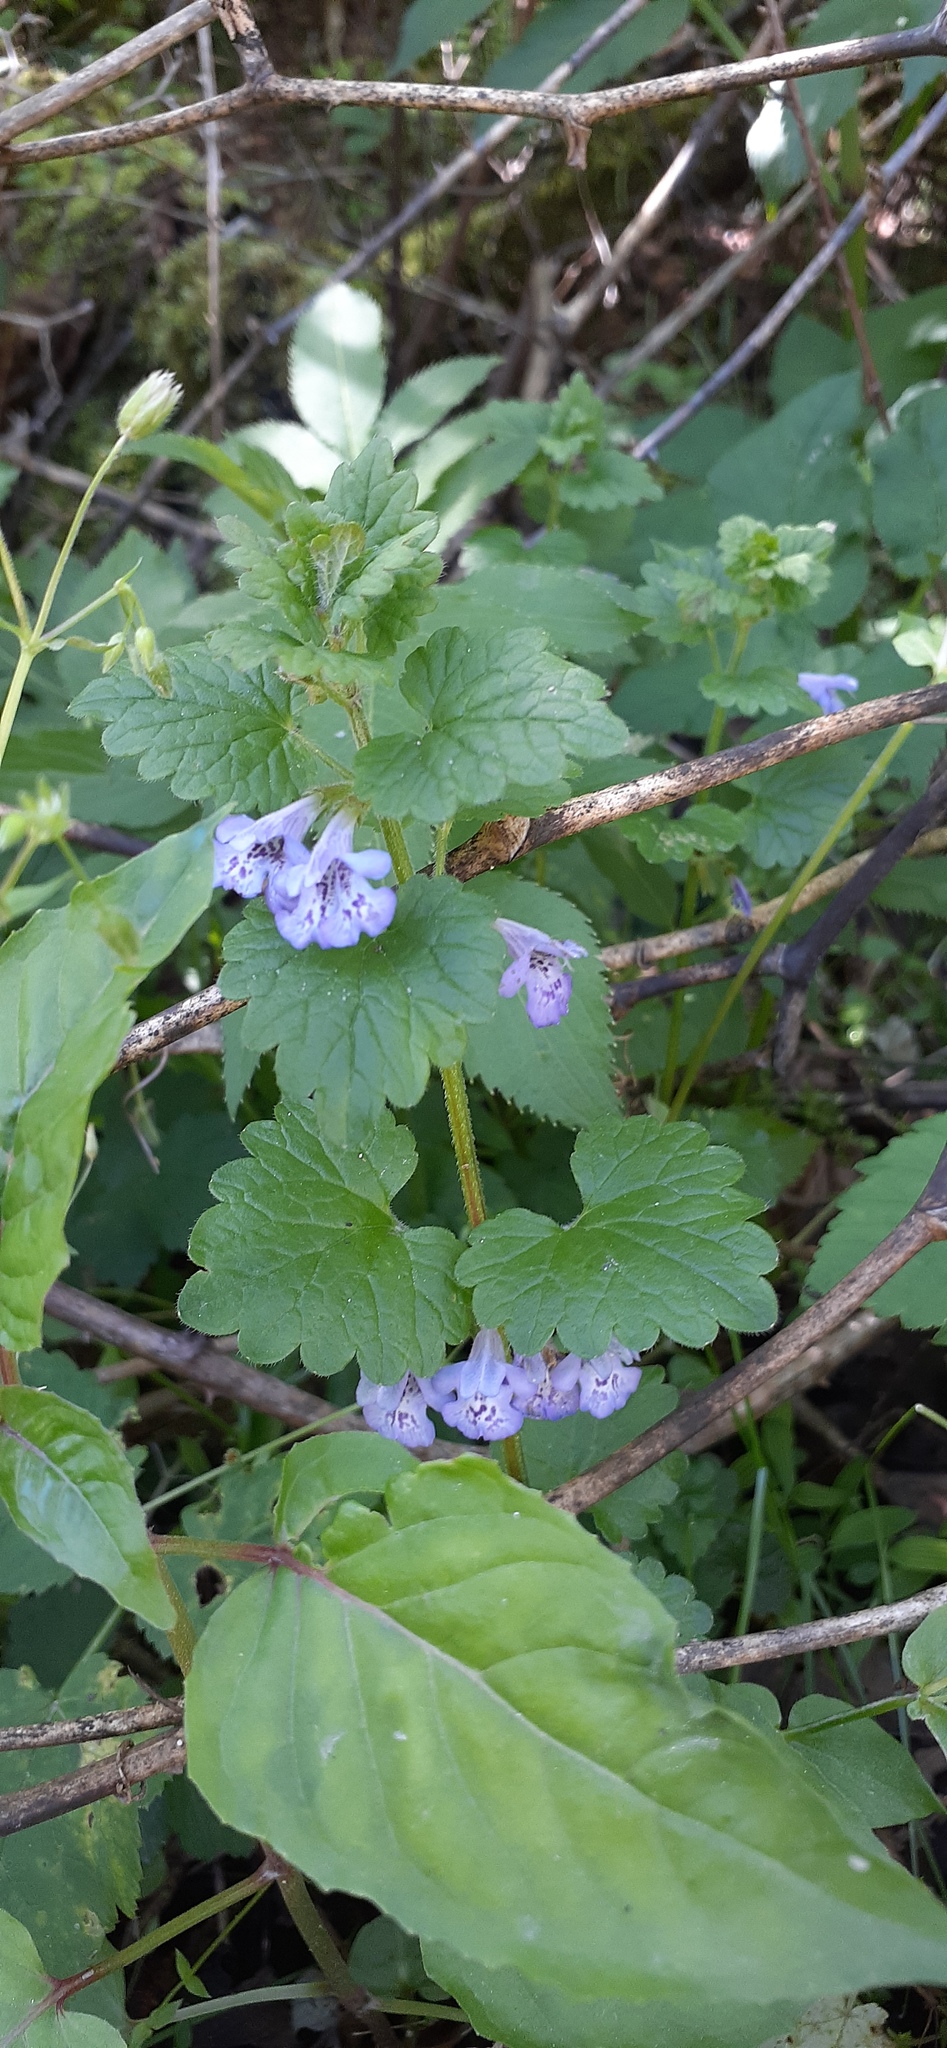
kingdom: Plantae
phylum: Tracheophyta
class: Magnoliopsida
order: Lamiales
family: Lamiaceae
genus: Glechoma
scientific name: Glechoma hederacea
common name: Ground ivy
